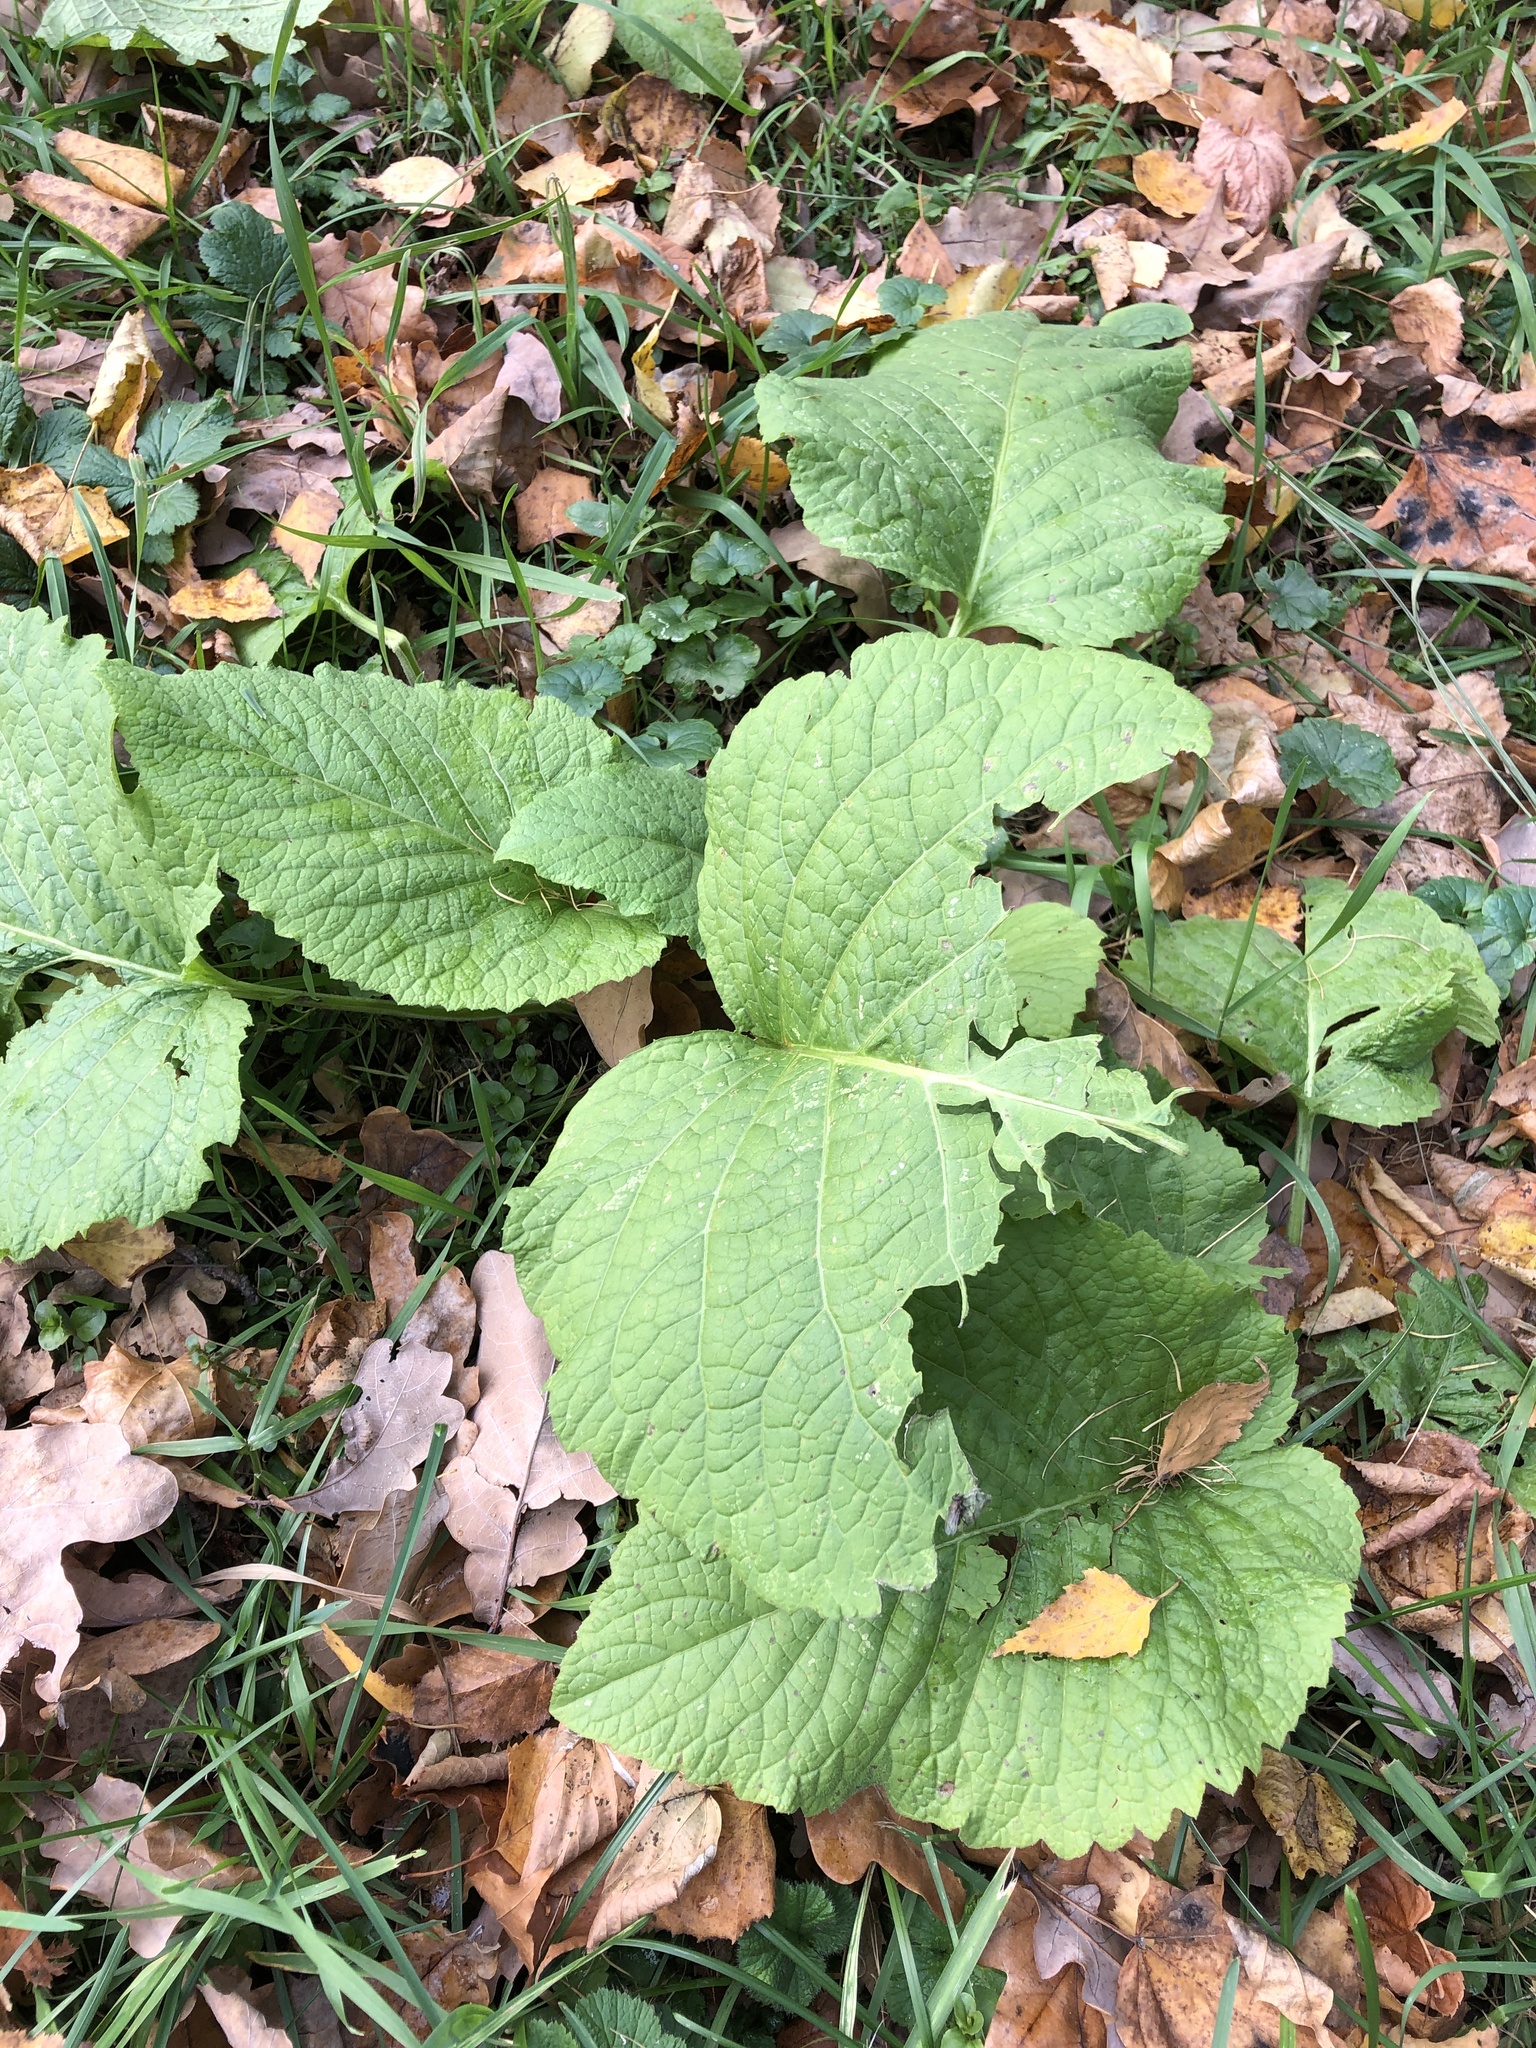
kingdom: Plantae
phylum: Tracheophyta
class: Magnoliopsida
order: Asterales
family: Asteraceae
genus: Telekia
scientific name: Telekia speciosa
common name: Yellow oxeye
